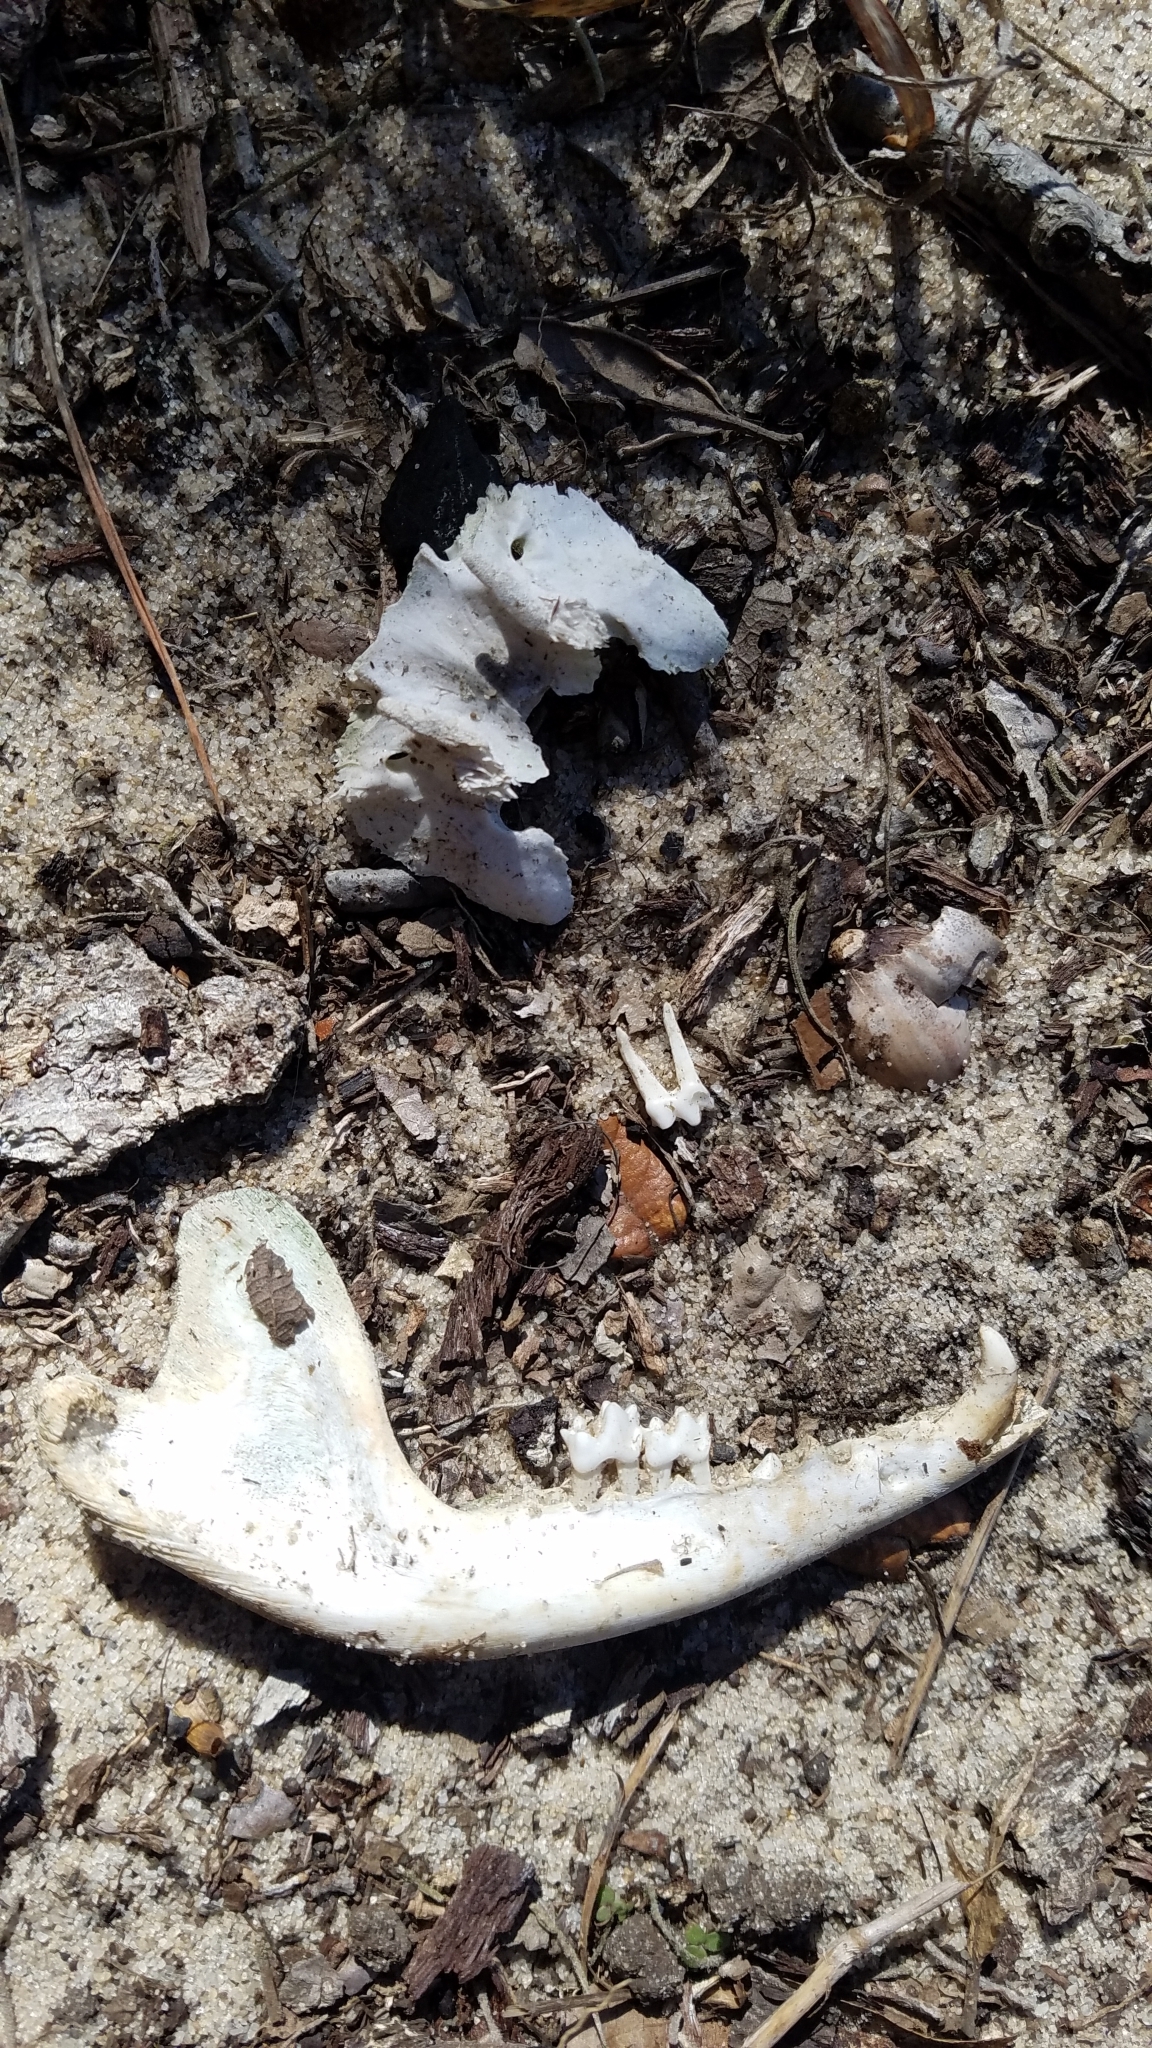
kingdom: Animalia
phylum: Chordata
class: Mammalia
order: Didelphimorphia
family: Didelphidae
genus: Didelphis
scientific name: Didelphis virginiana
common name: Virginia opossum
